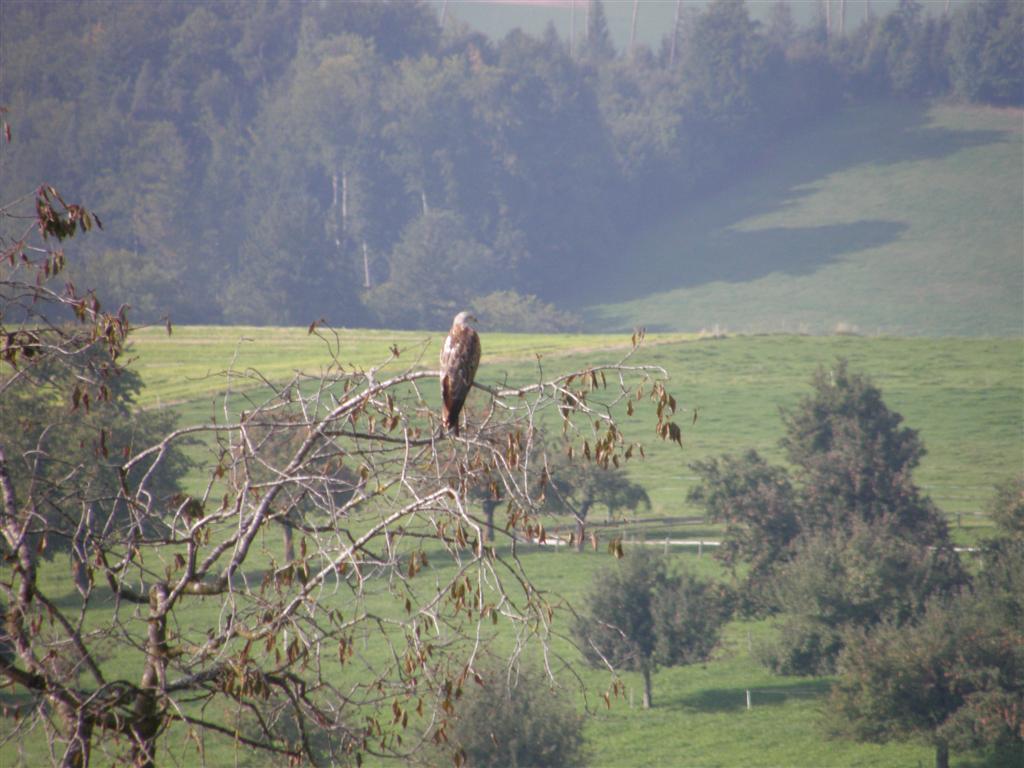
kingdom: Animalia
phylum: Chordata
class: Aves
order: Accipitriformes
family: Accipitridae
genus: Milvus
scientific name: Milvus milvus
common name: Red kite
